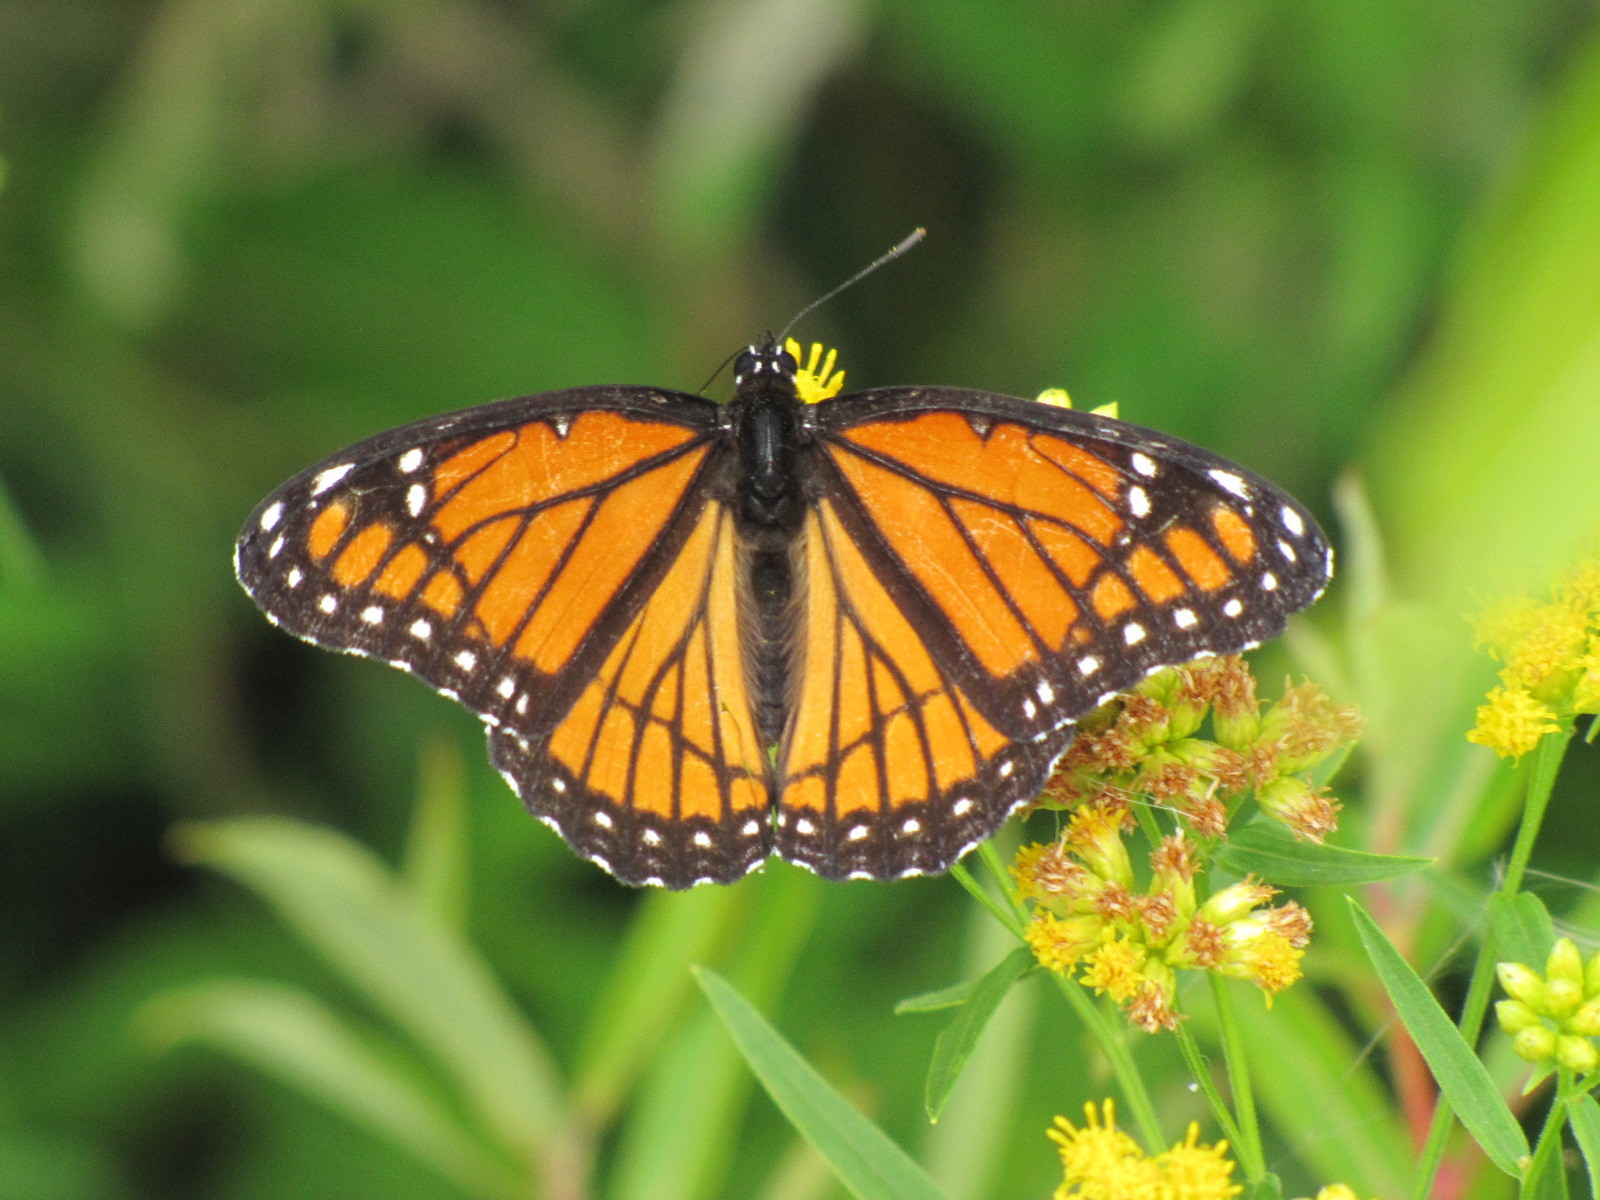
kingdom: Animalia
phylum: Arthropoda
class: Insecta
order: Lepidoptera
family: Nymphalidae
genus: Limenitis
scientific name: Limenitis archippus
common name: Viceroy
